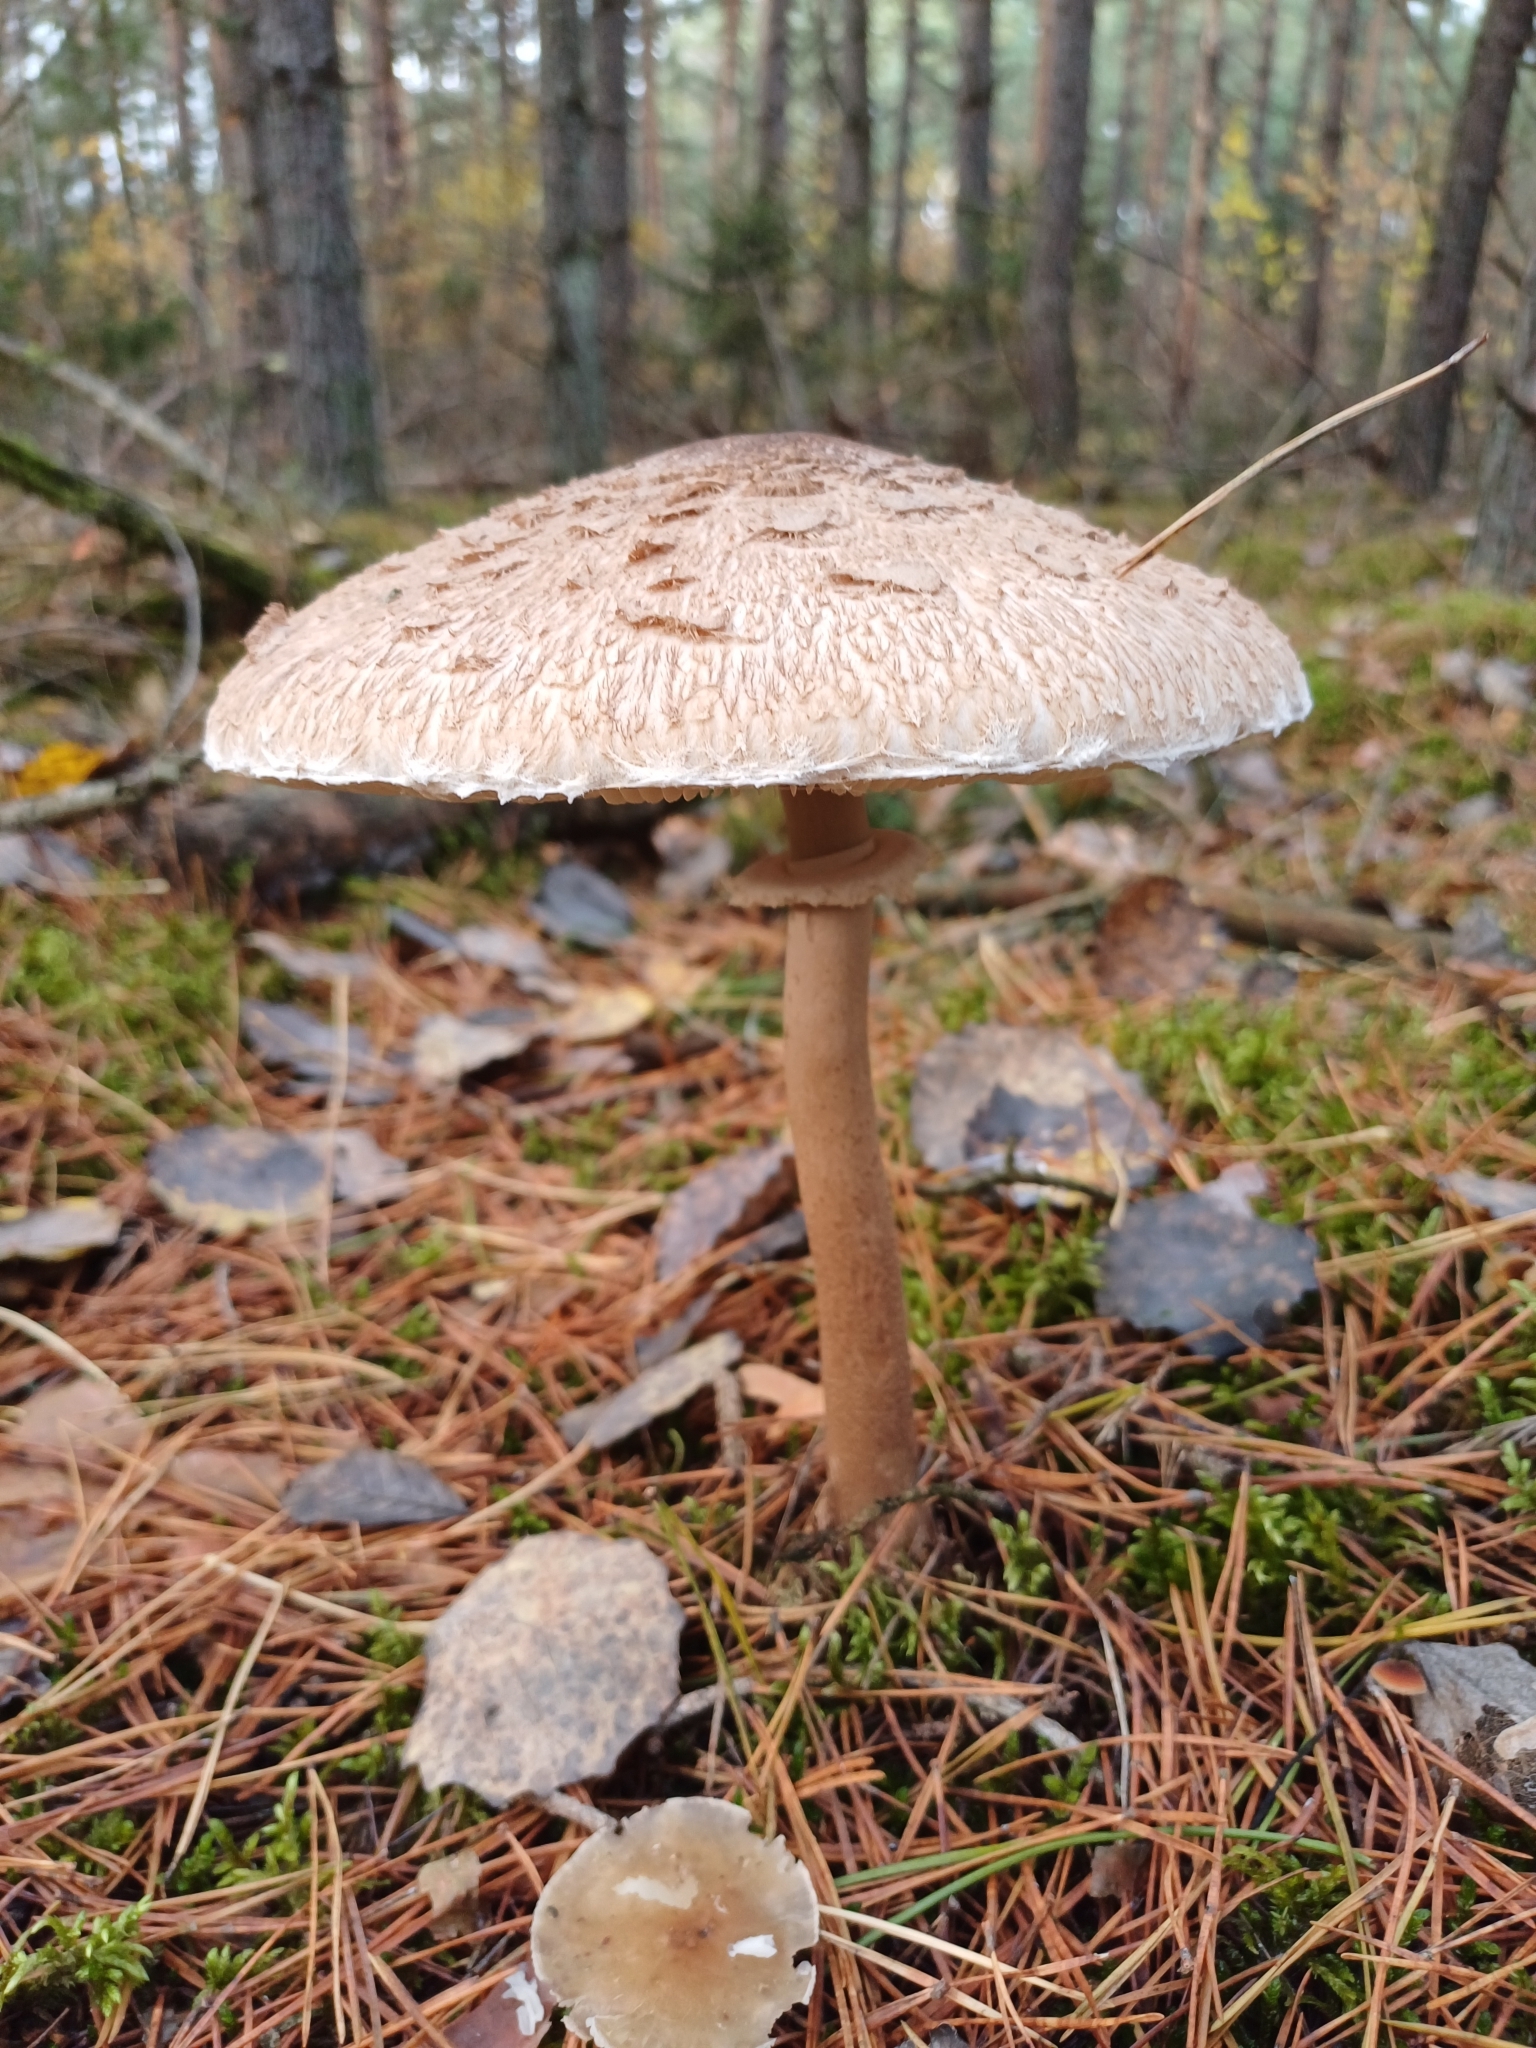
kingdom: Fungi
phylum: Basidiomycota
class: Agaricomycetes
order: Agaricales
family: Agaricaceae
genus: Macrolepiota
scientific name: Macrolepiota procera
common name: Parasol
